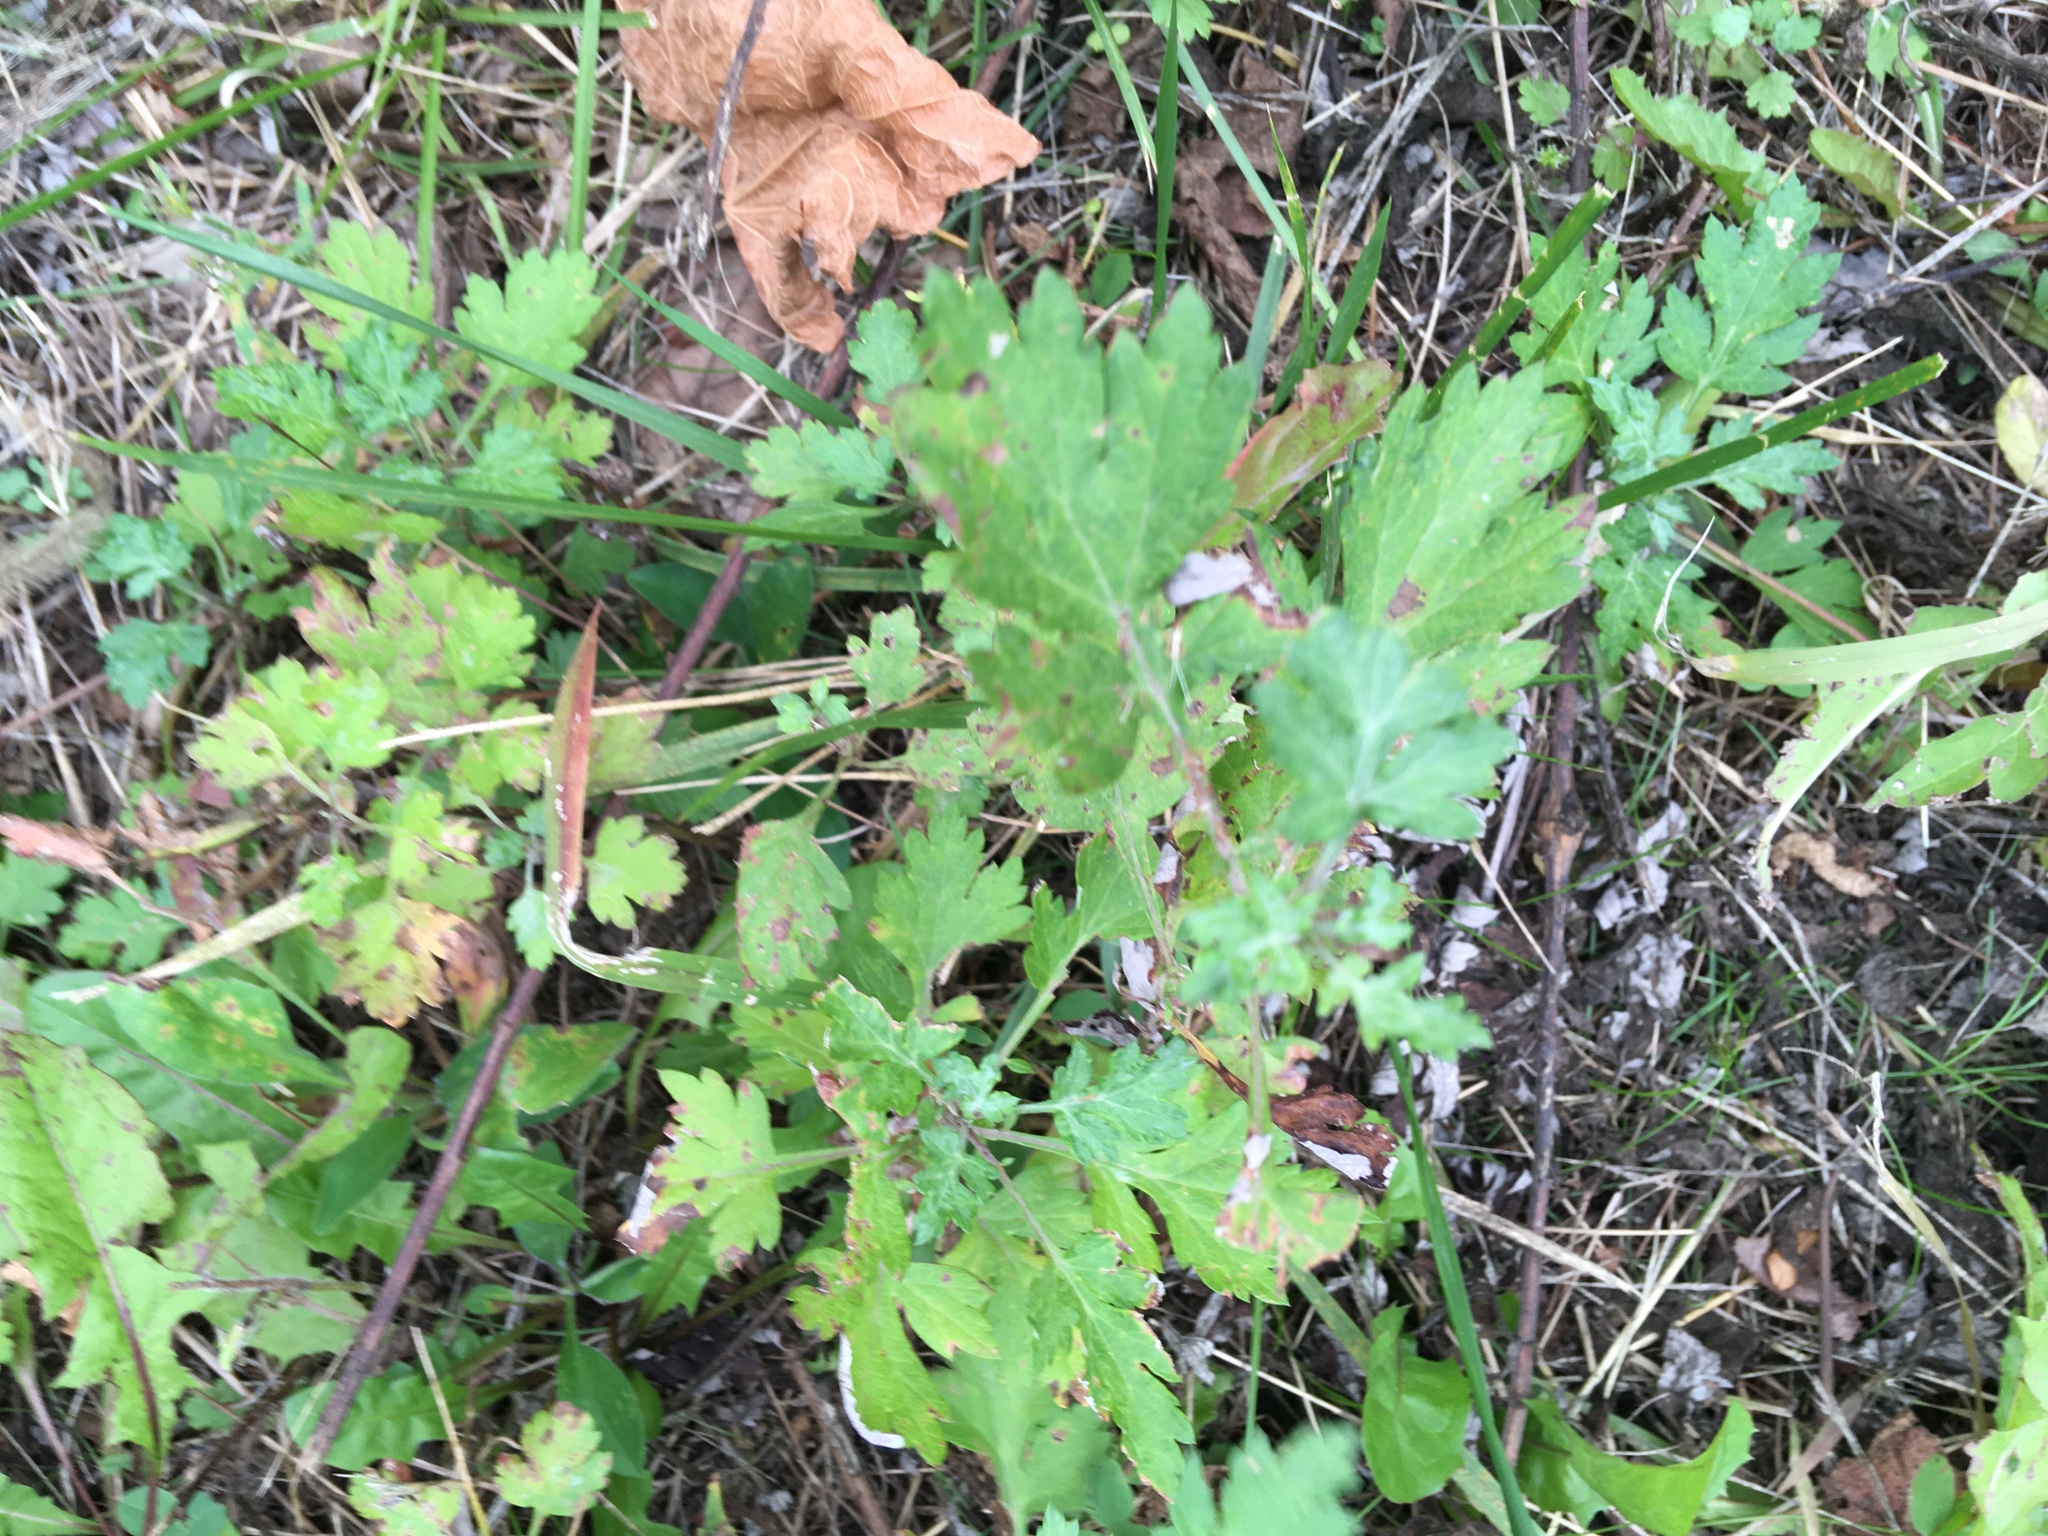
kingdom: Plantae
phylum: Tracheophyta
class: Magnoliopsida
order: Asterales
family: Asteraceae
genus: Artemisia
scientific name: Artemisia vulgaris
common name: Mugwort
